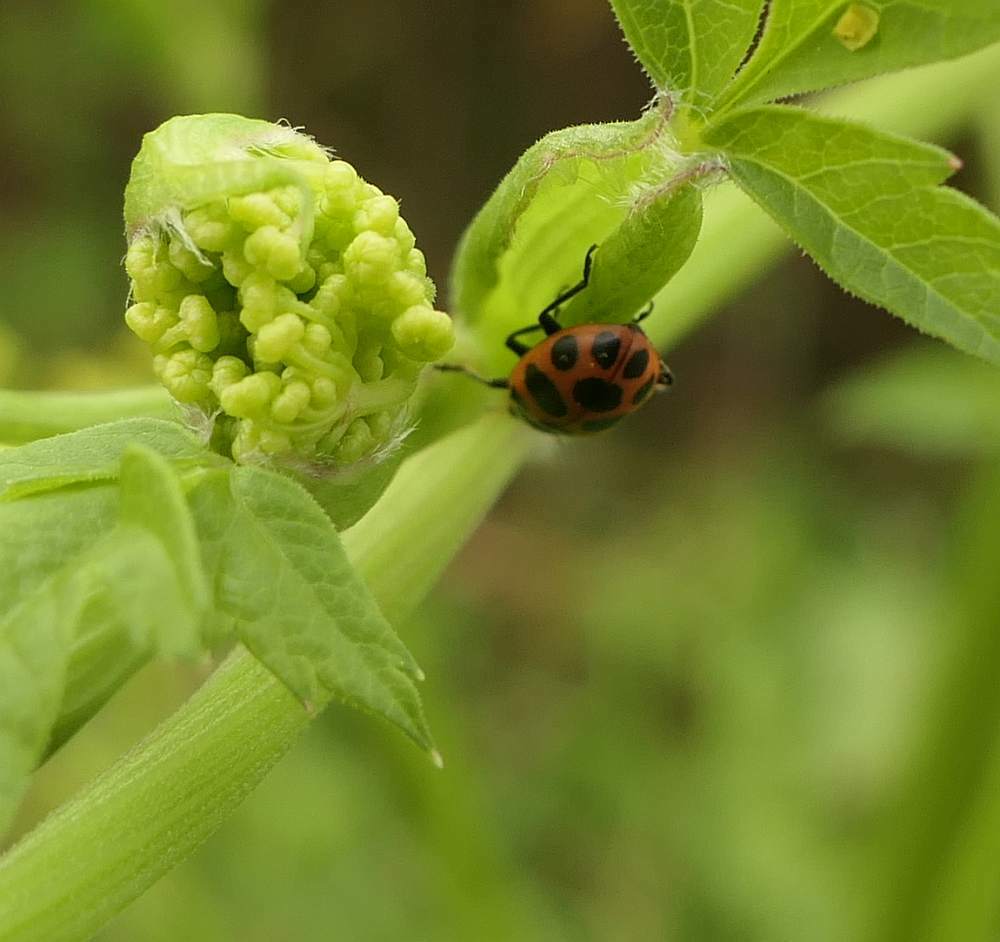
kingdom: Animalia
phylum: Arthropoda
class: Insecta
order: Coleoptera
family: Coccinellidae
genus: Coleomegilla
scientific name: Coleomegilla maculata
